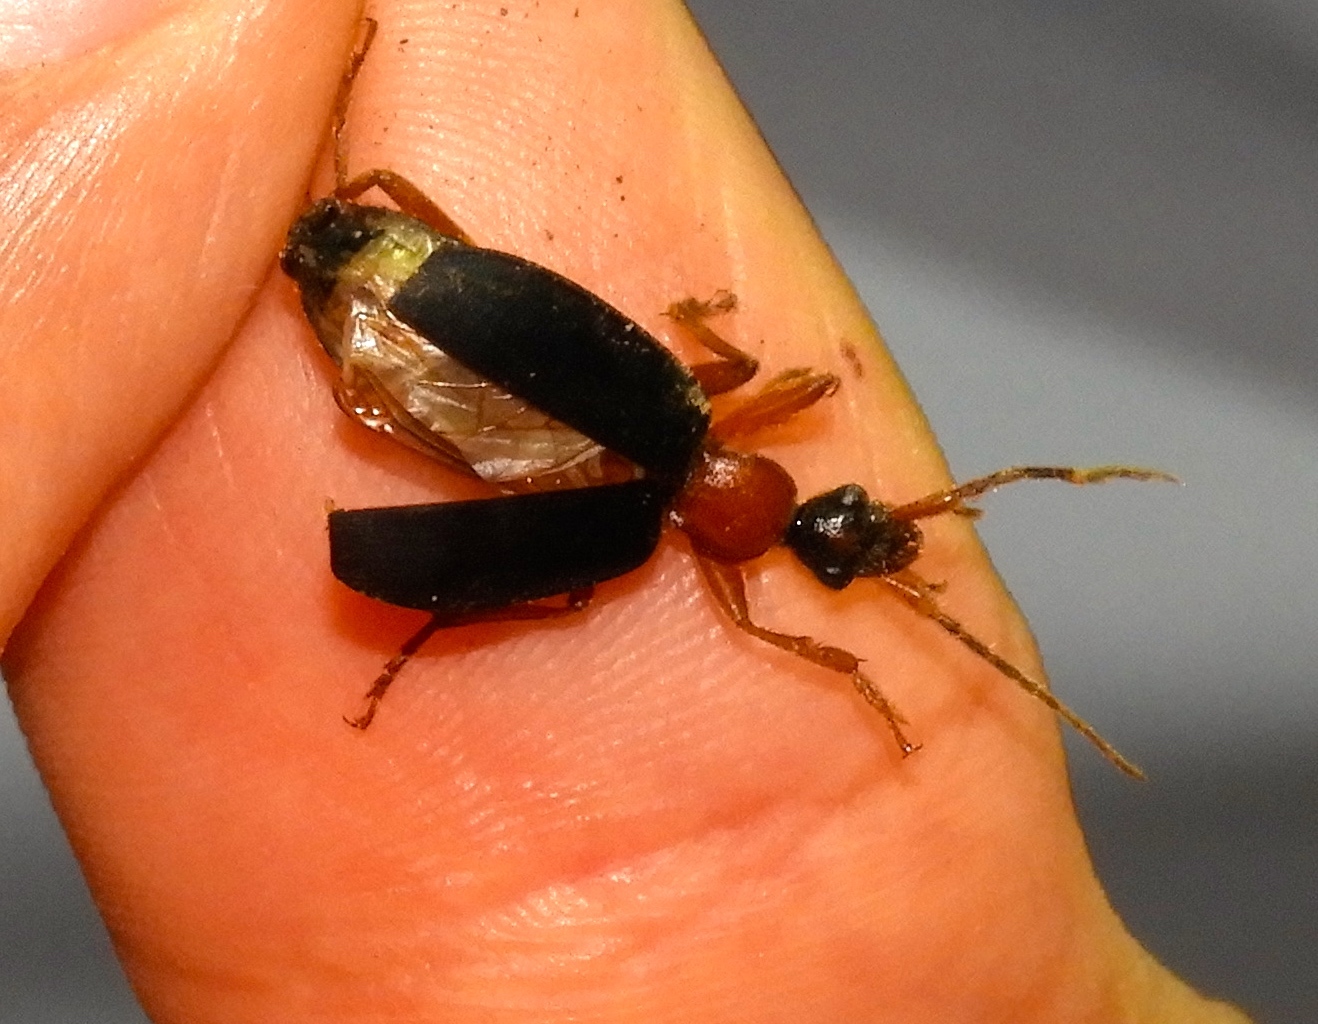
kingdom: Animalia
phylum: Arthropoda
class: Insecta
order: Coleoptera
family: Carabidae
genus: Galerita
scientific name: Galerita
